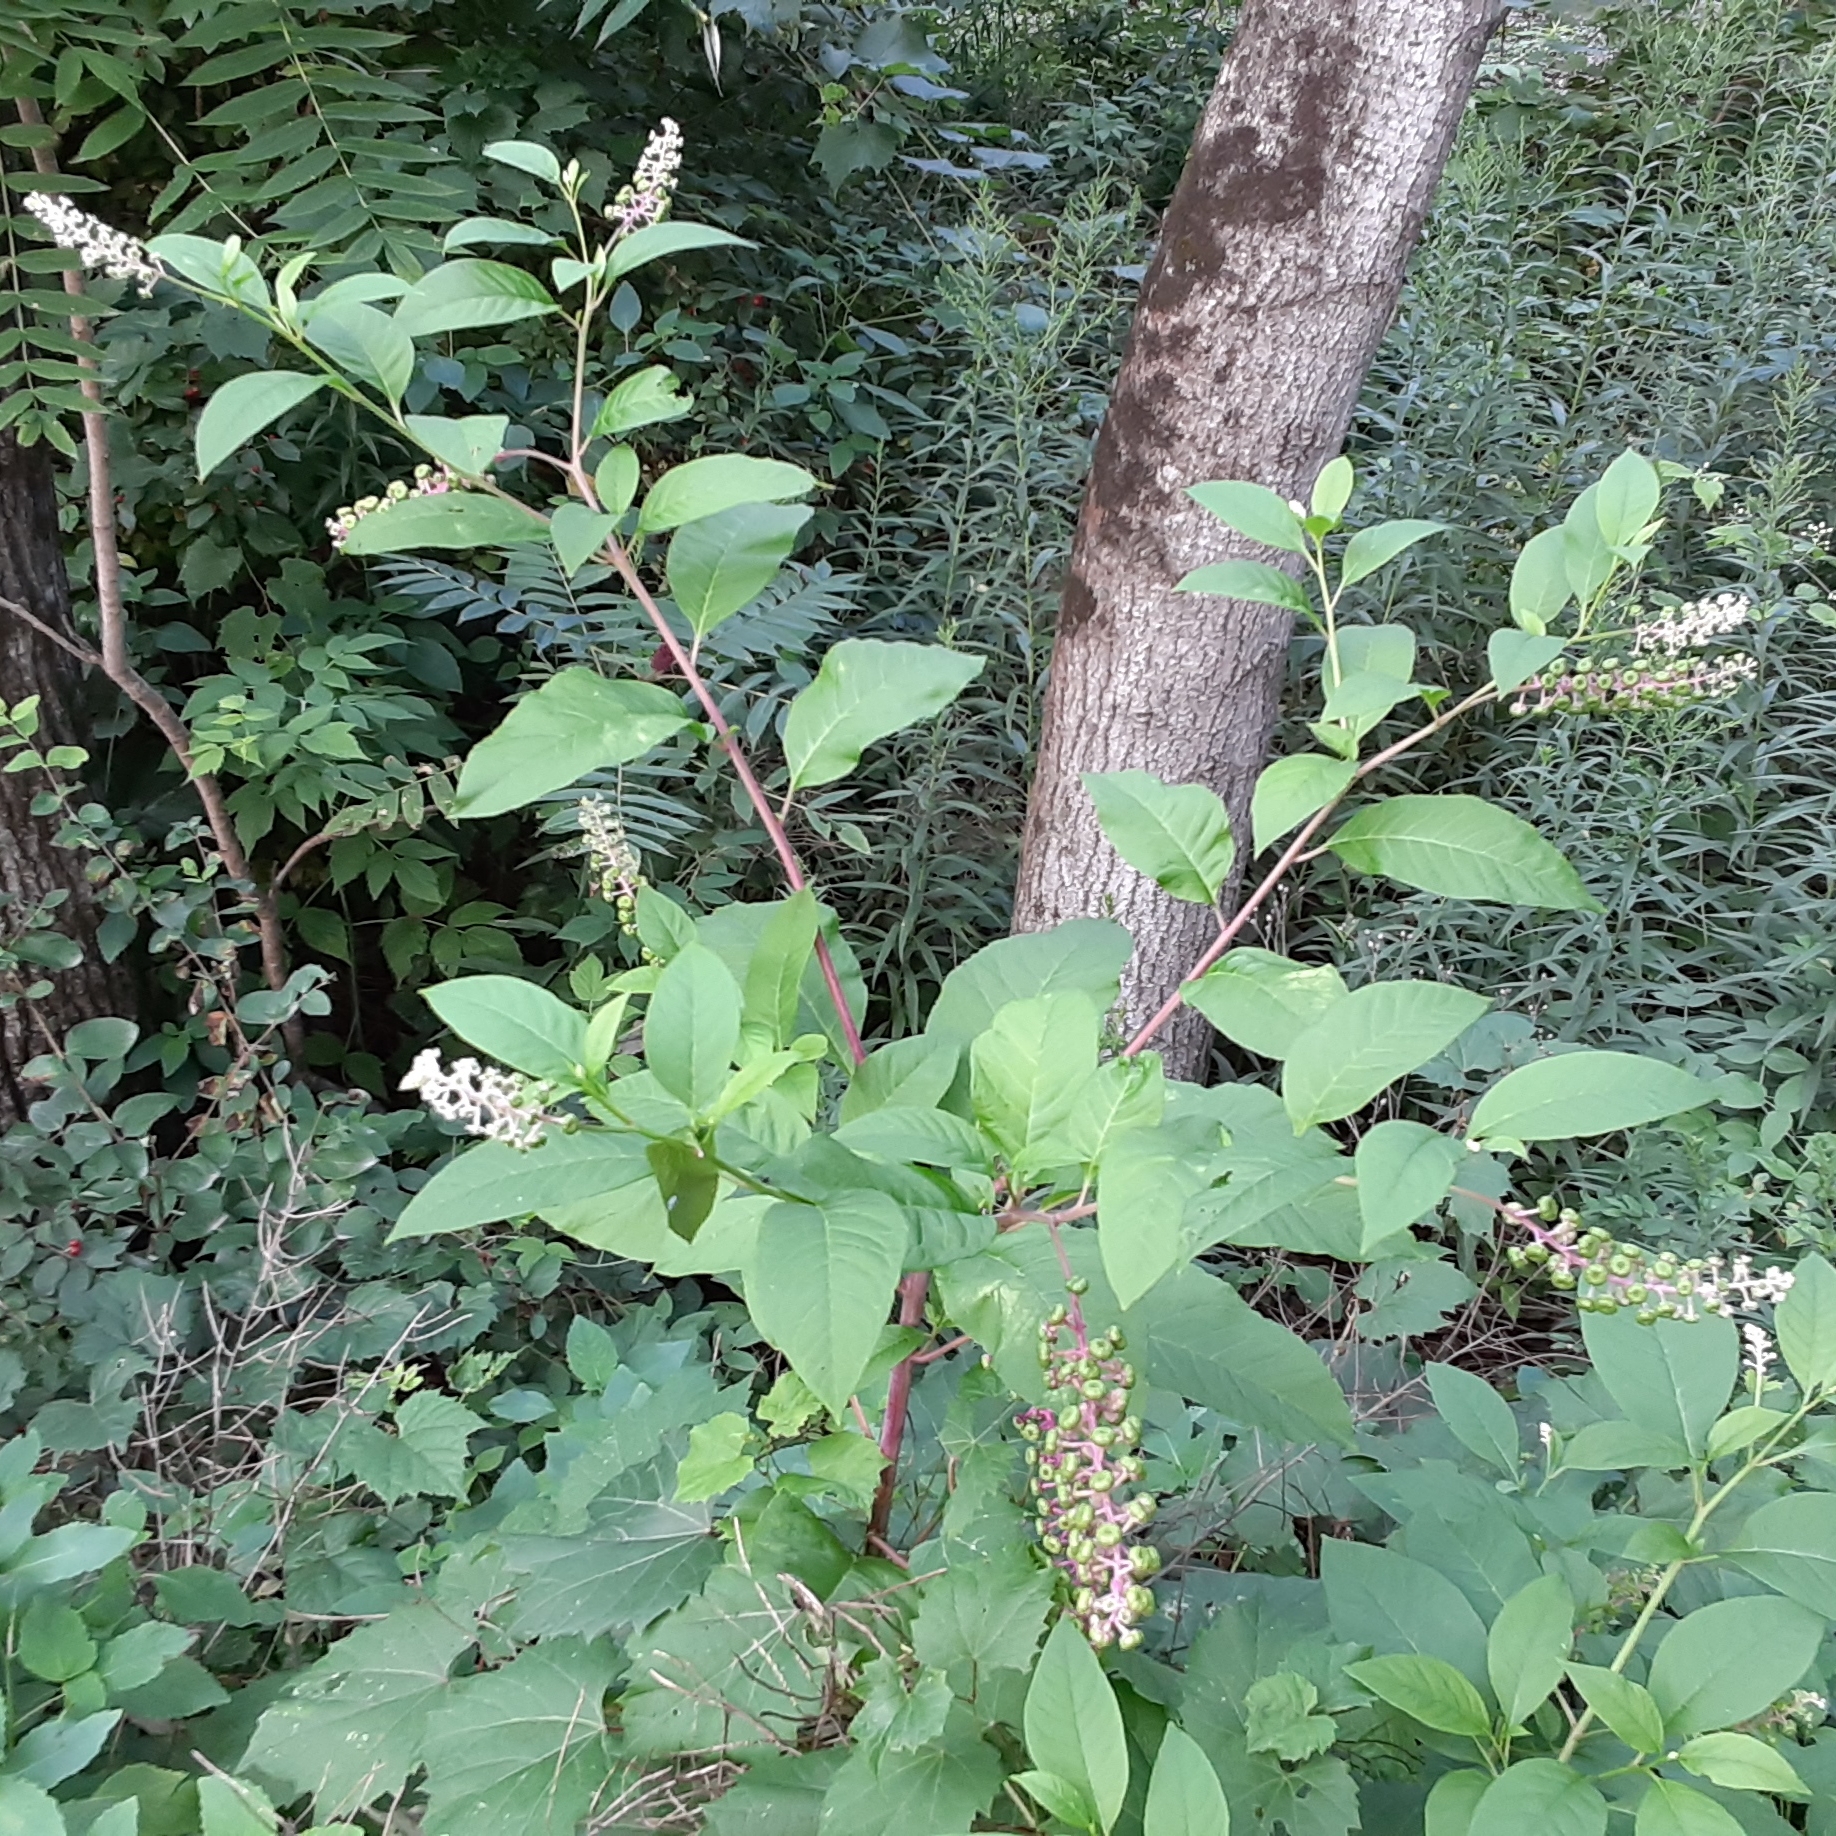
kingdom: Plantae
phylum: Tracheophyta
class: Magnoliopsida
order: Caryophyllales
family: Phytolaccaceae
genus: Phytolacca
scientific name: Phytolacca americana
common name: American pokeweed
